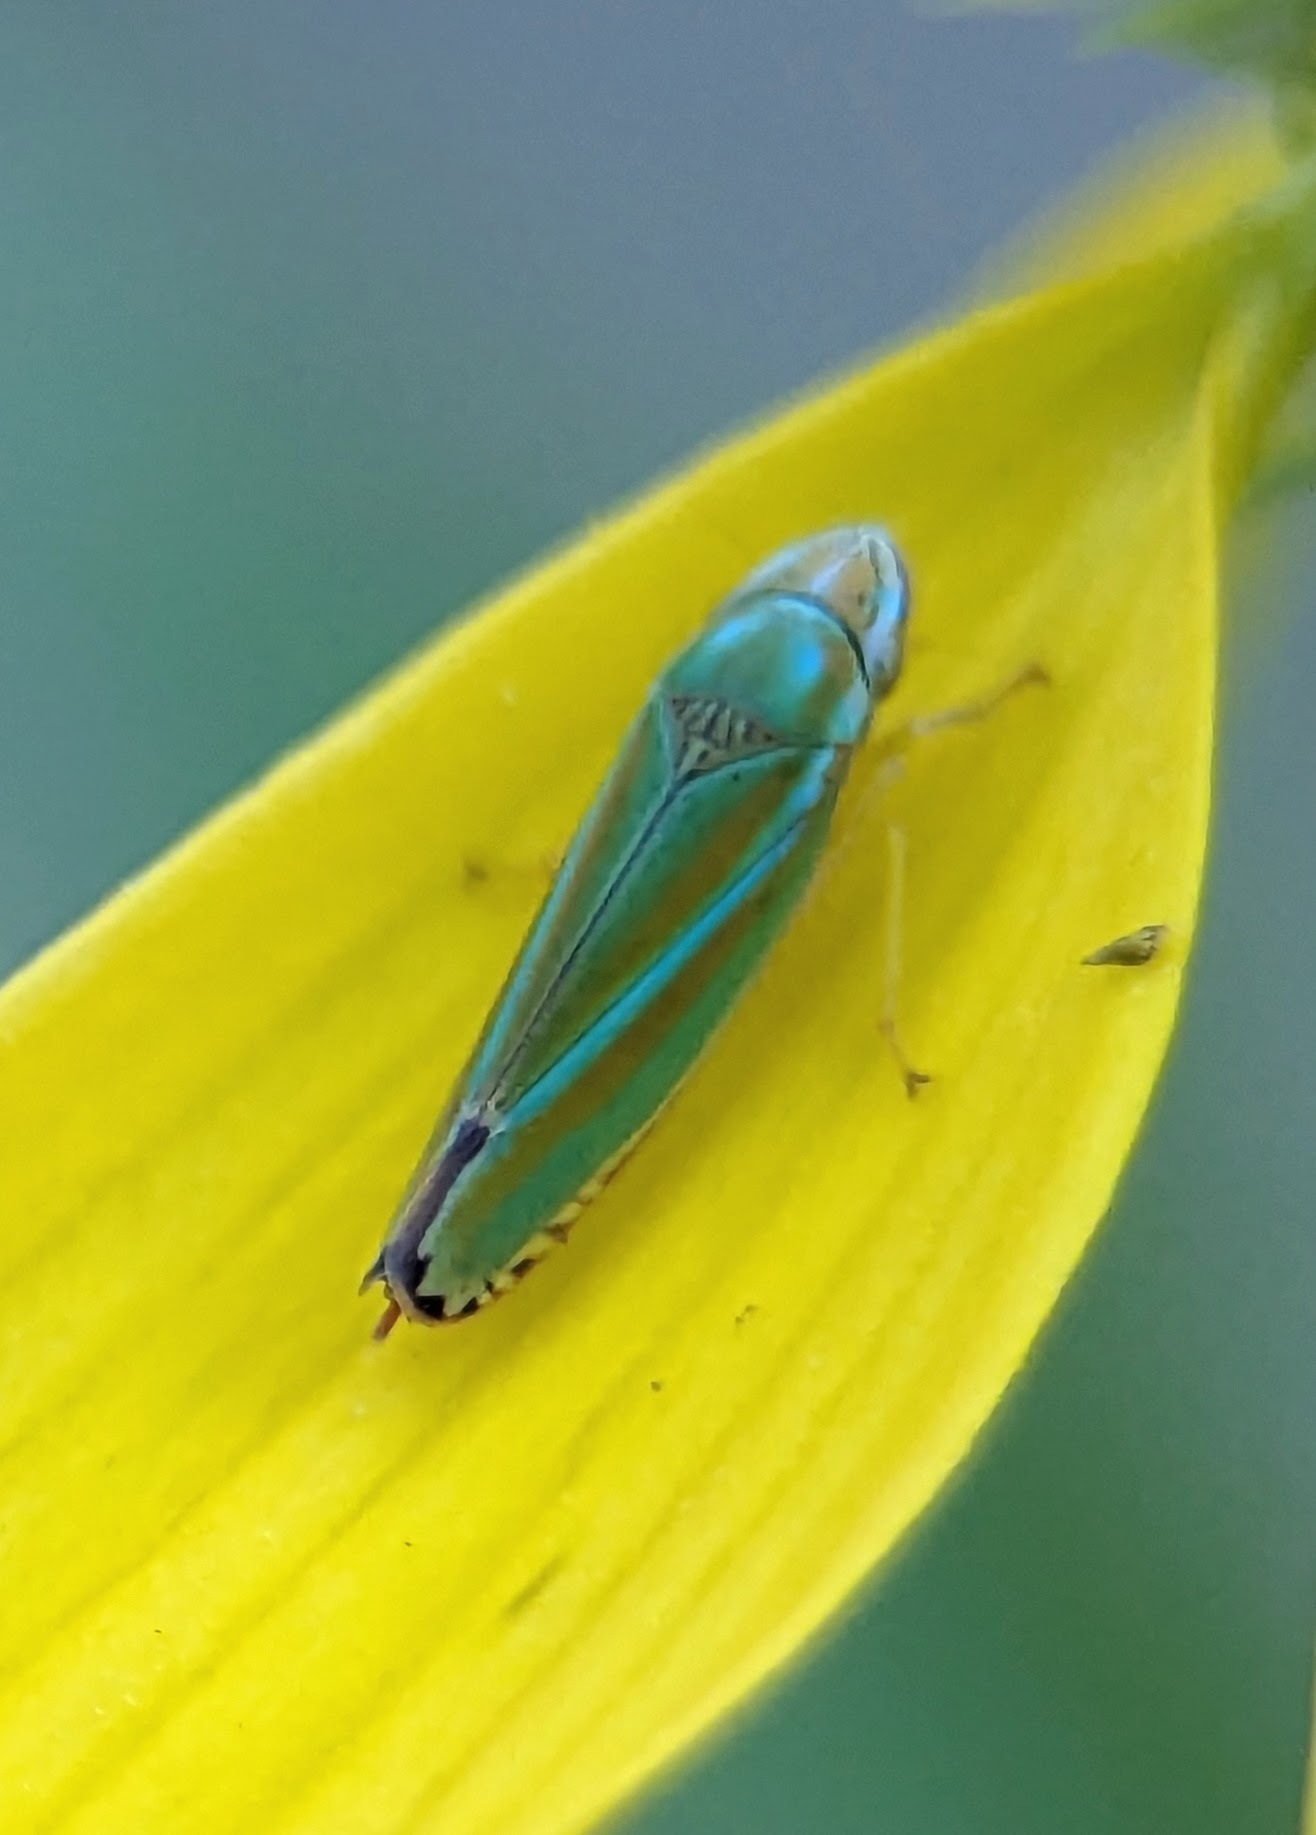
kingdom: Animalia
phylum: Arthropoda
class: Insecta
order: Hemiptera
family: Cicadellidae
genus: Graphocephala
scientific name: Graphocephala versuta
